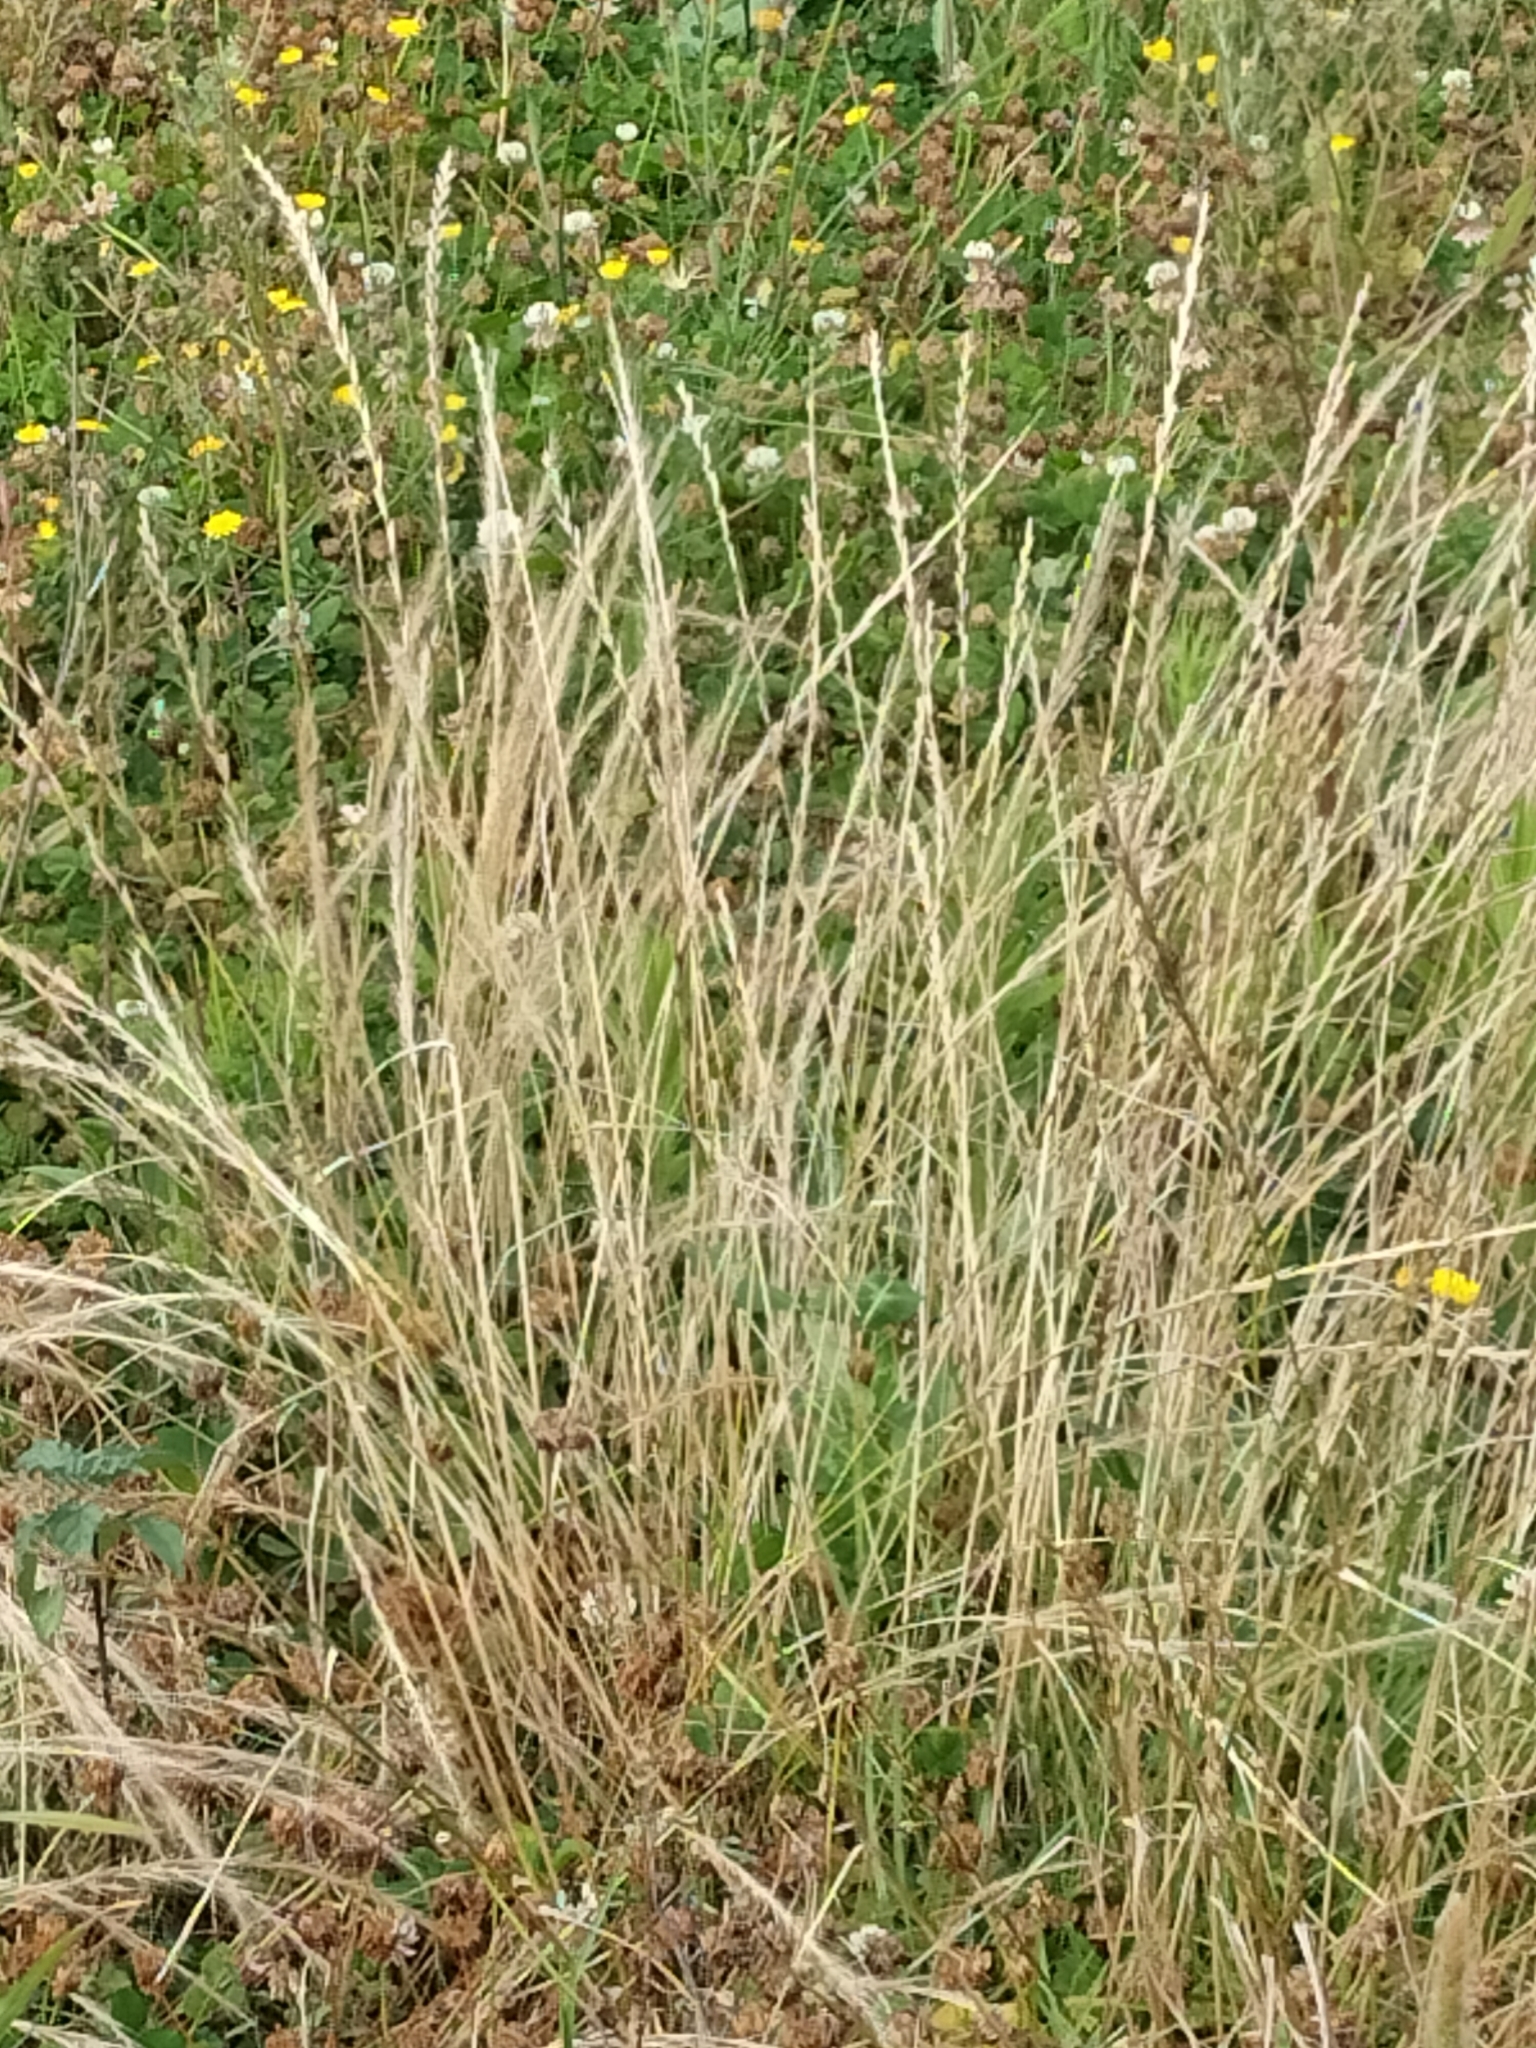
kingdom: Plantae
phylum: Tracheophyta
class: Liliopsida
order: Poales
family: Poaceae
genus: Lolium
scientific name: Lolium perenne
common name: Perennial ryegrass
